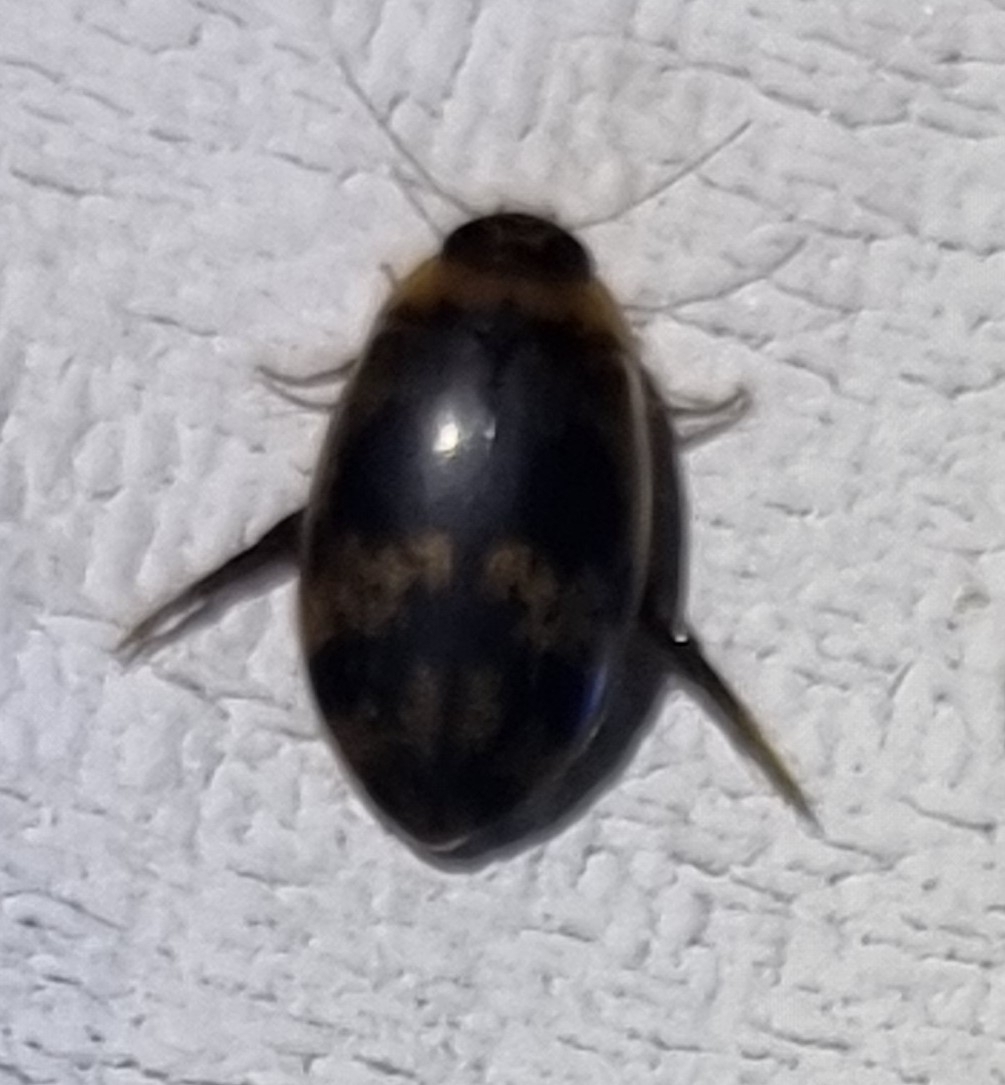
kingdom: Animalia
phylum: Arthropoda
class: Insecta
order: Coleoptera
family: Dytiscidae
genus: Rhantaticus
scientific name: Rhantaticus congestus
